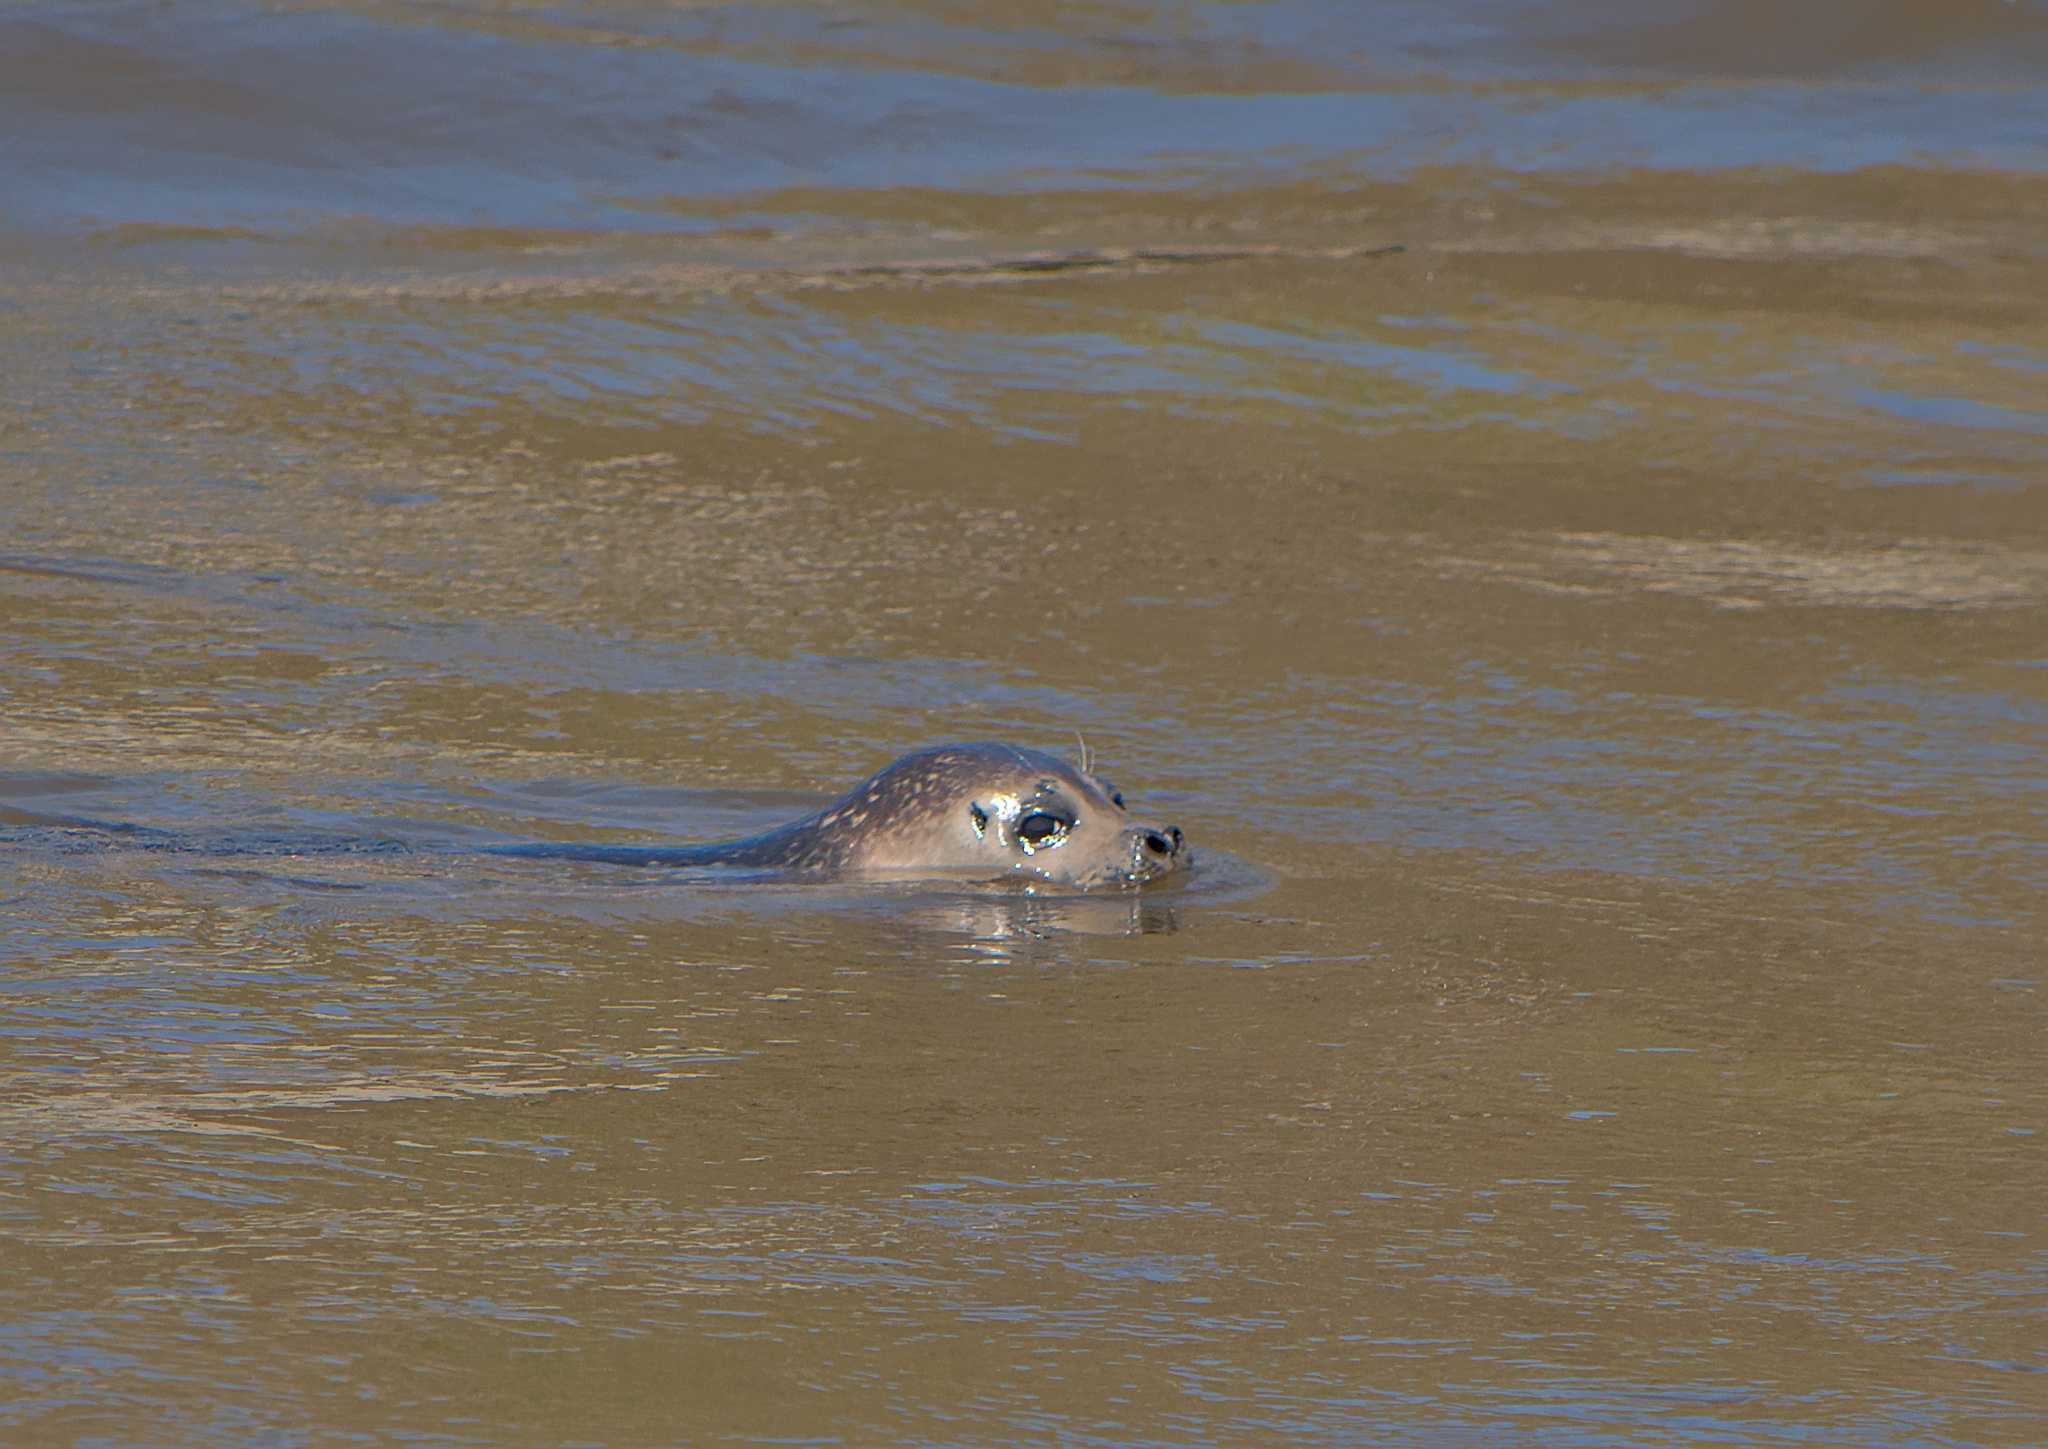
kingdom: Animalia
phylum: Chordata
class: Mammalia
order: Carnivora
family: Phocidae
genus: Phoca
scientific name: Phoca vitulina
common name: Harbor seal
